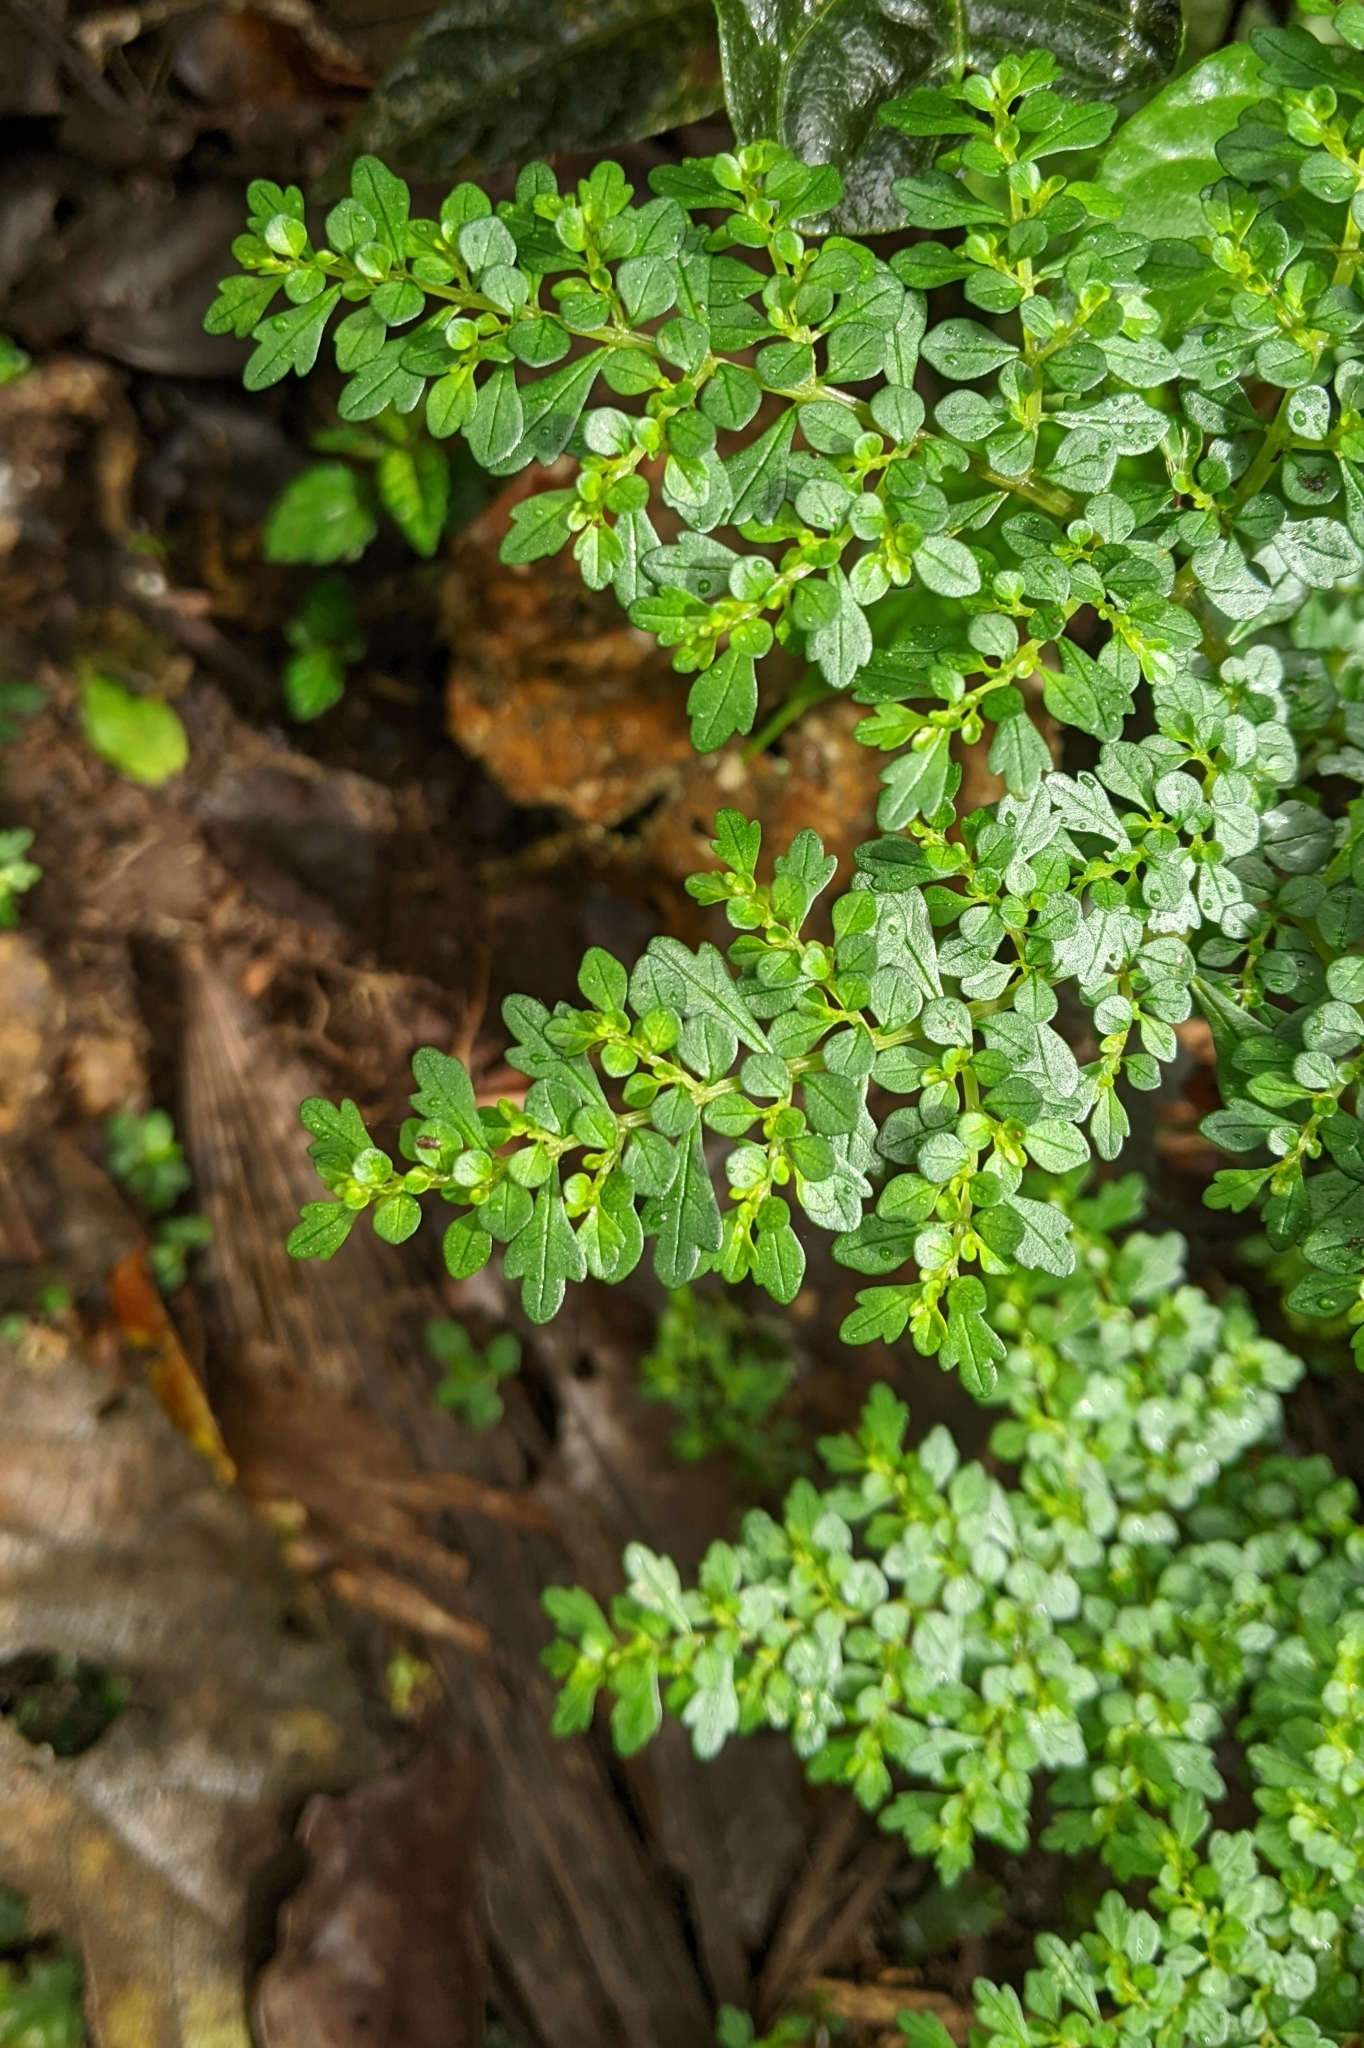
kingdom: Plantae
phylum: Tracheophyta
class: Magnoliopsida
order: Rosales
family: Urticaceae
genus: Pilea
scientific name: Pilea myriophylla
